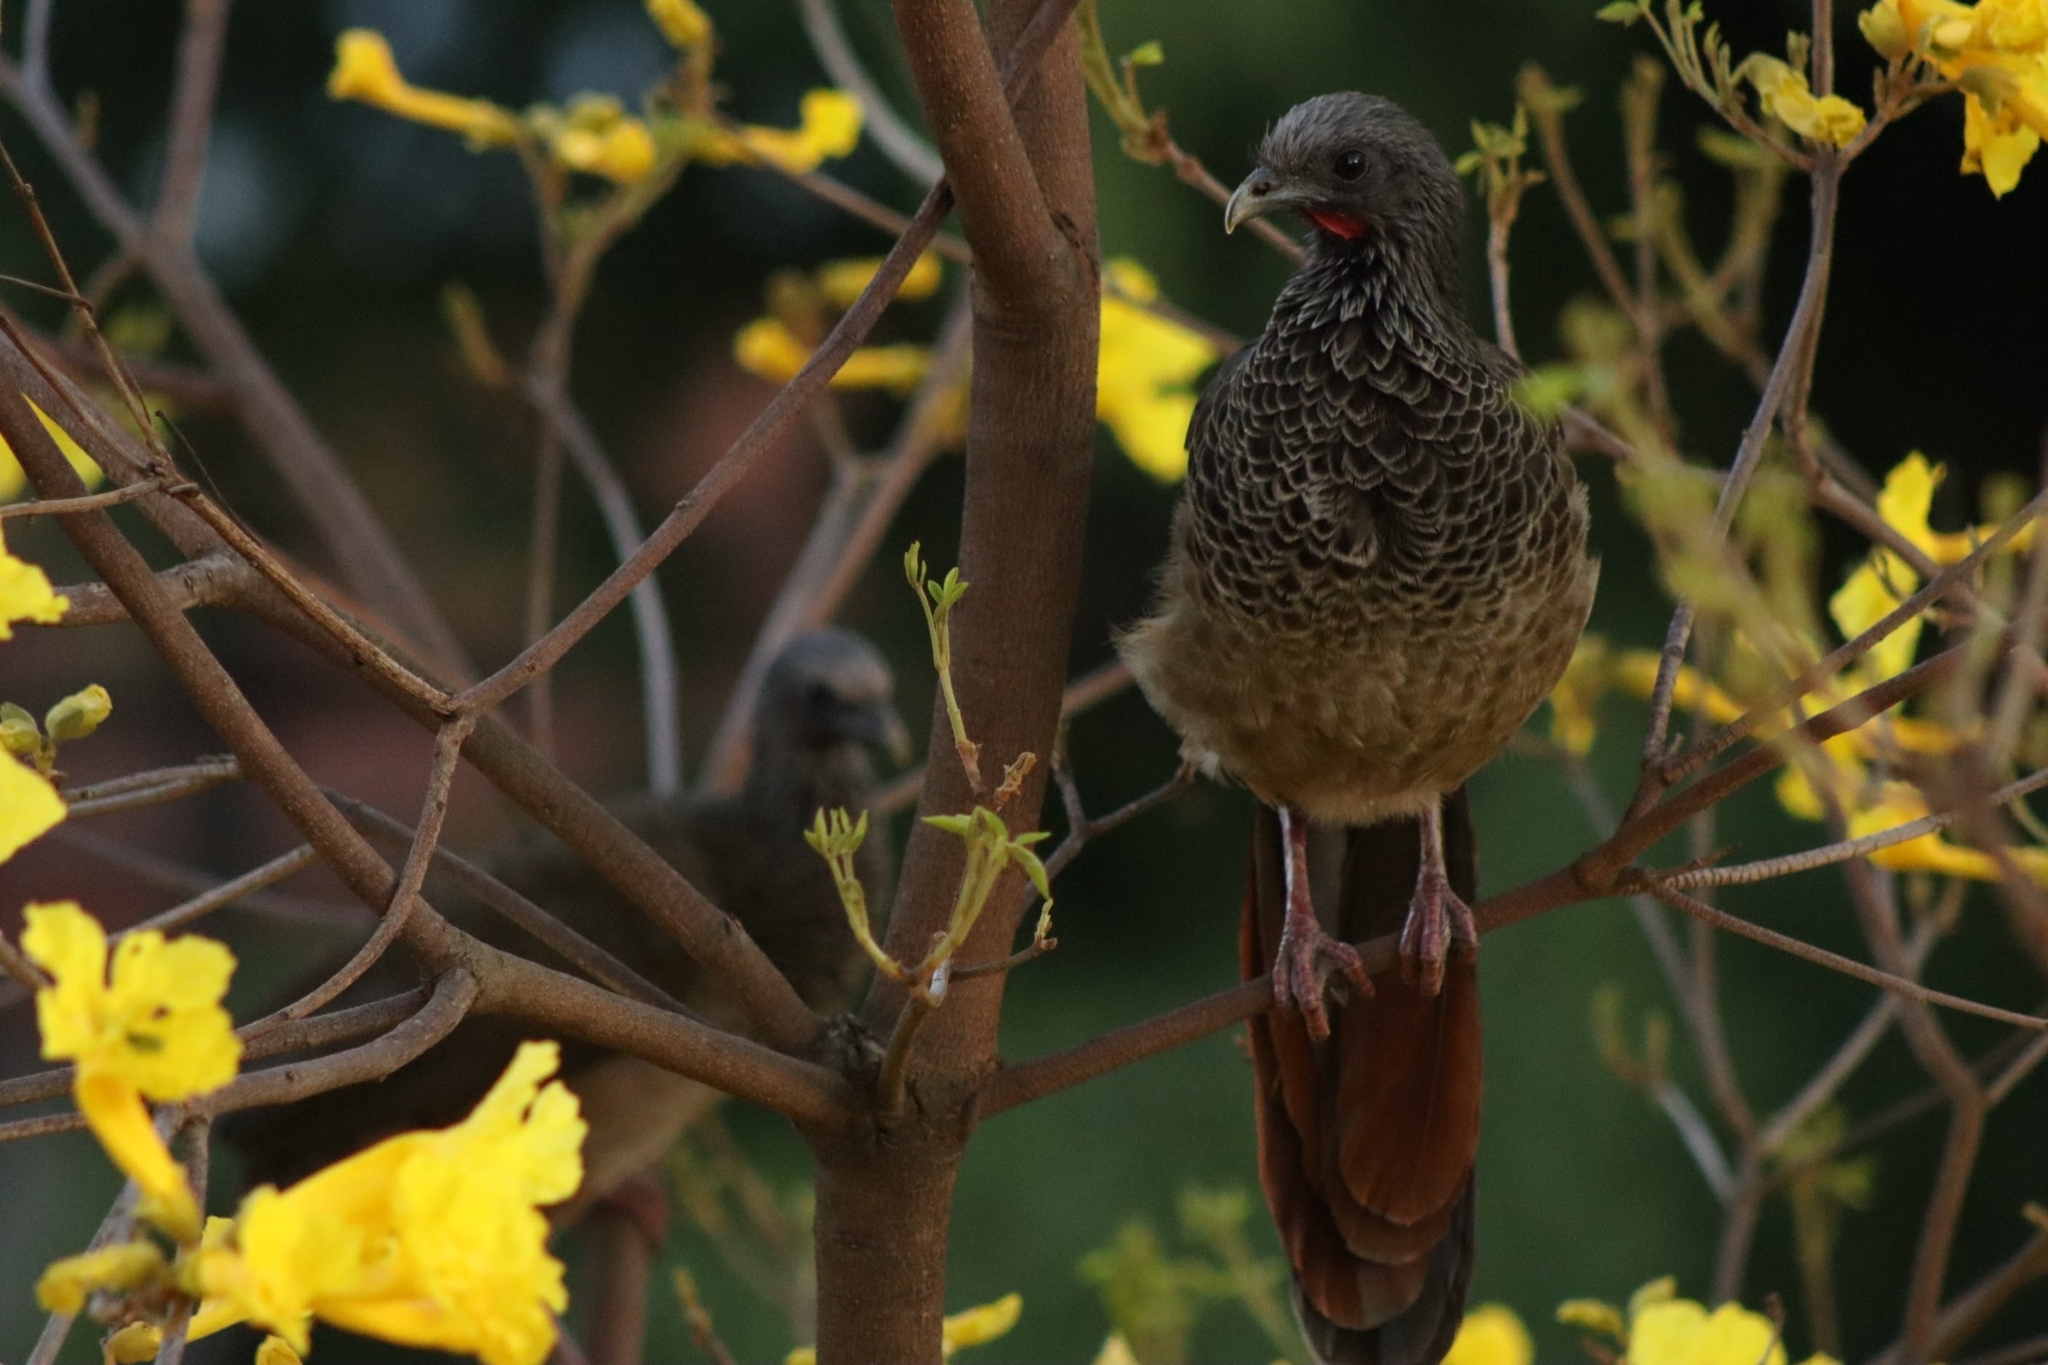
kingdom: Animalia
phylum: Chordata
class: Aves
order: Galliformes
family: Cracidae
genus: Ortalis
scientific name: Ortalis columbiana
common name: Colombian chachalaca
